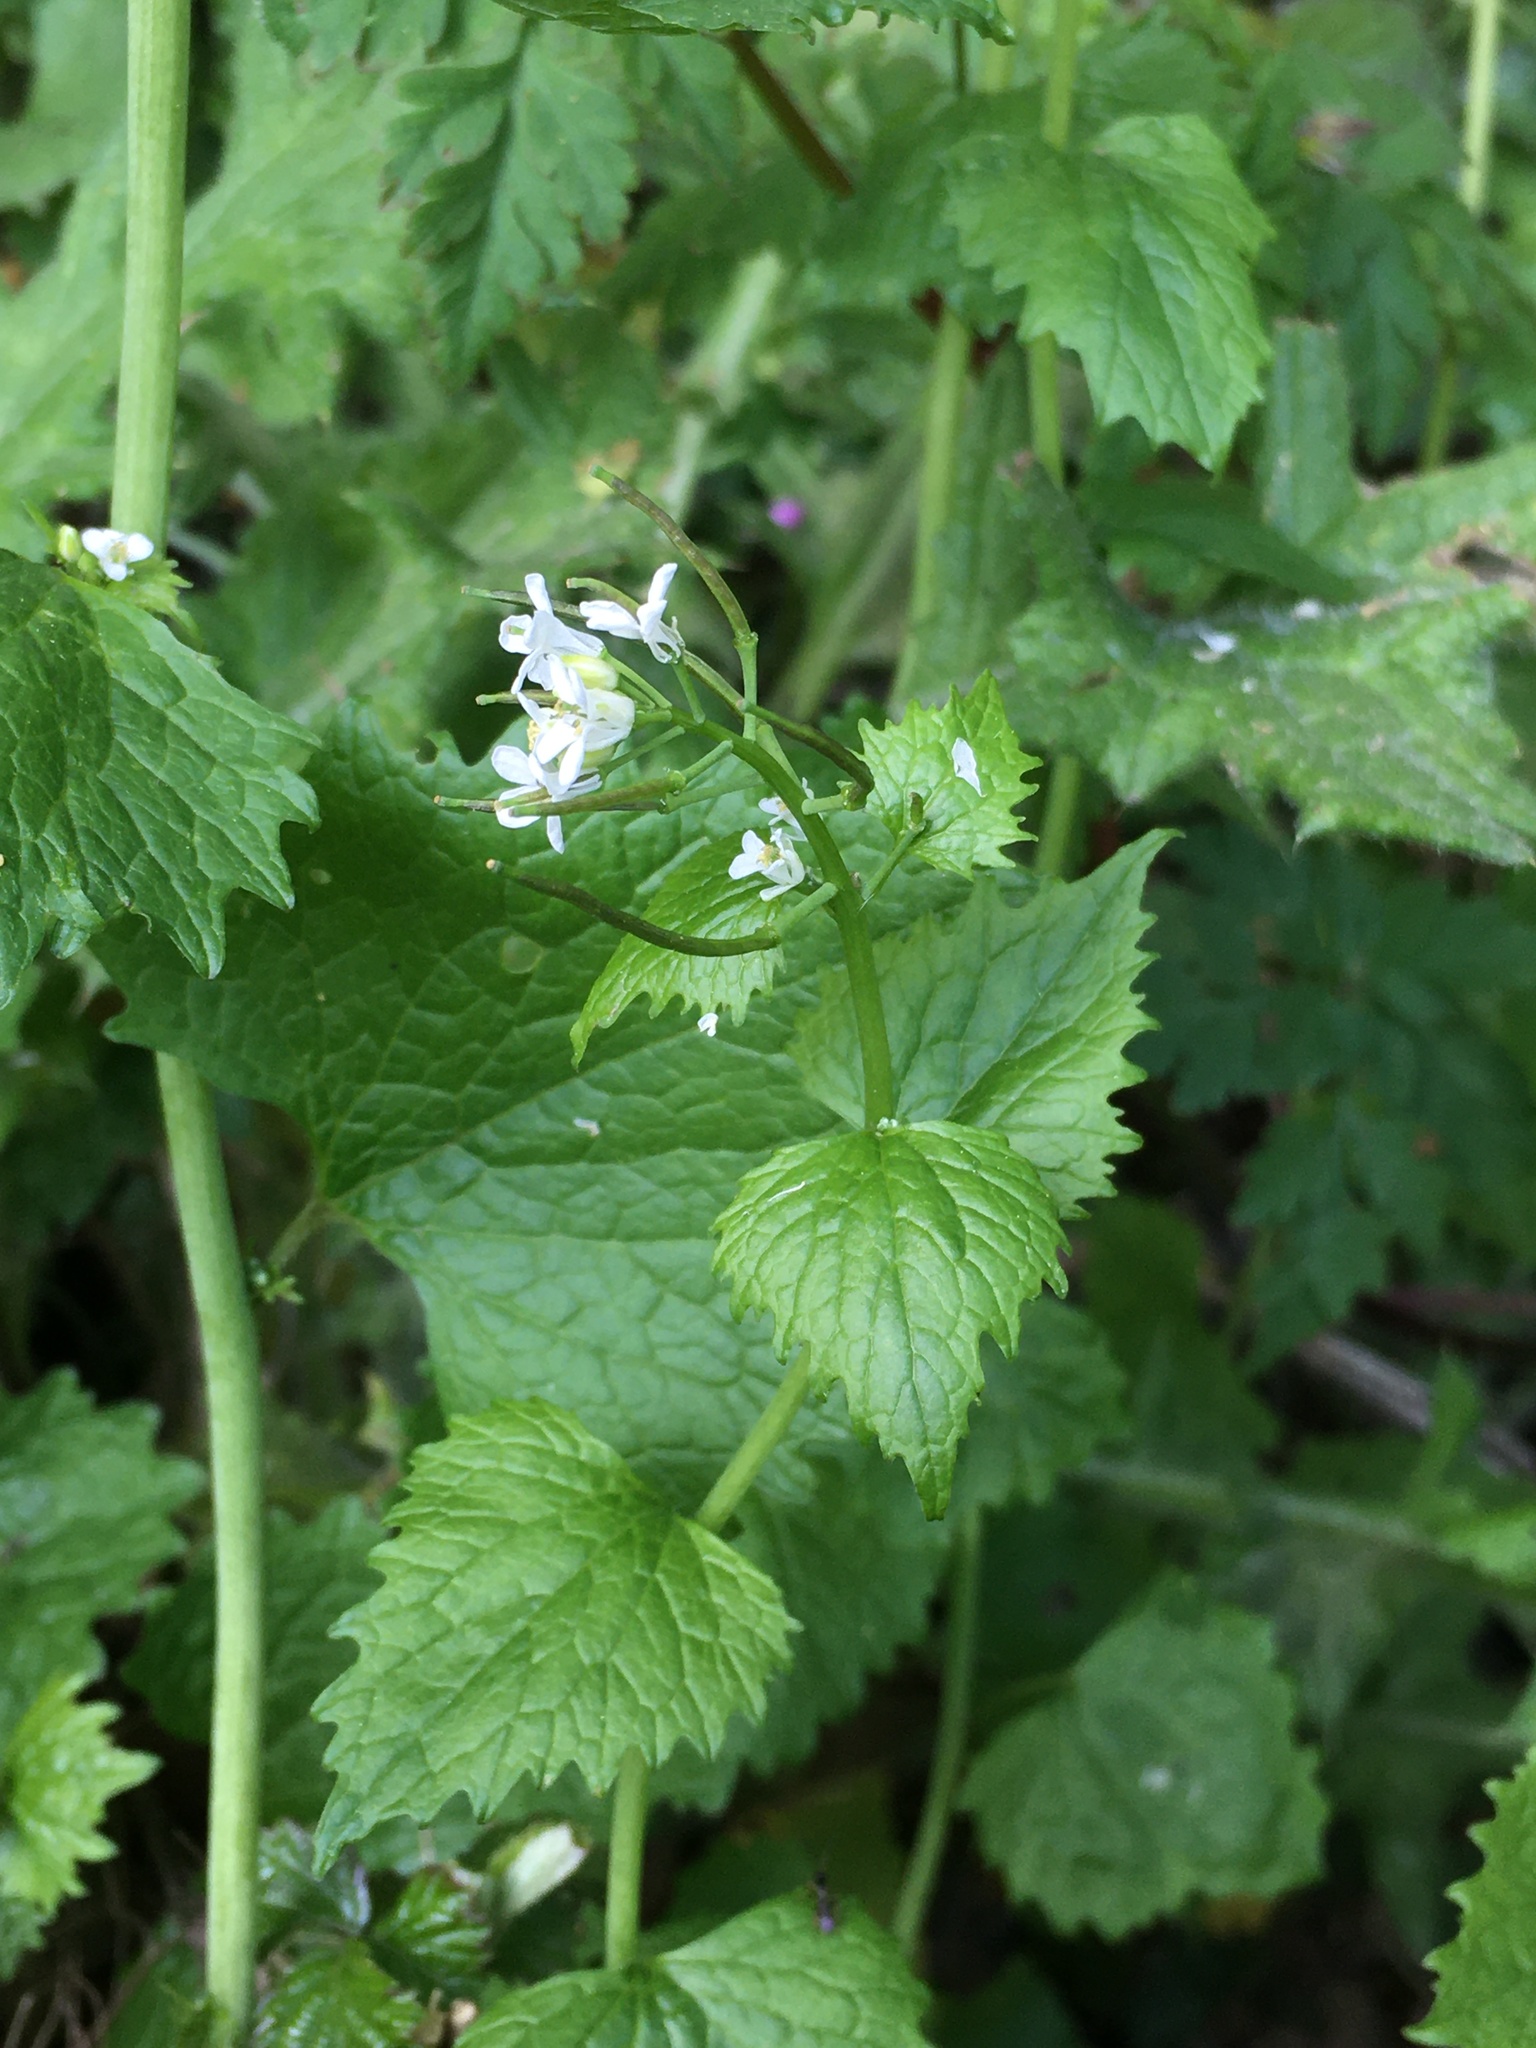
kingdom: Plantae
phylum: Tracheophyta
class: Magnoliopsida
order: Brassicales
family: Brassicaceae
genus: Alliaria
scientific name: Alliaria petiolata
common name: Garlic mustard
